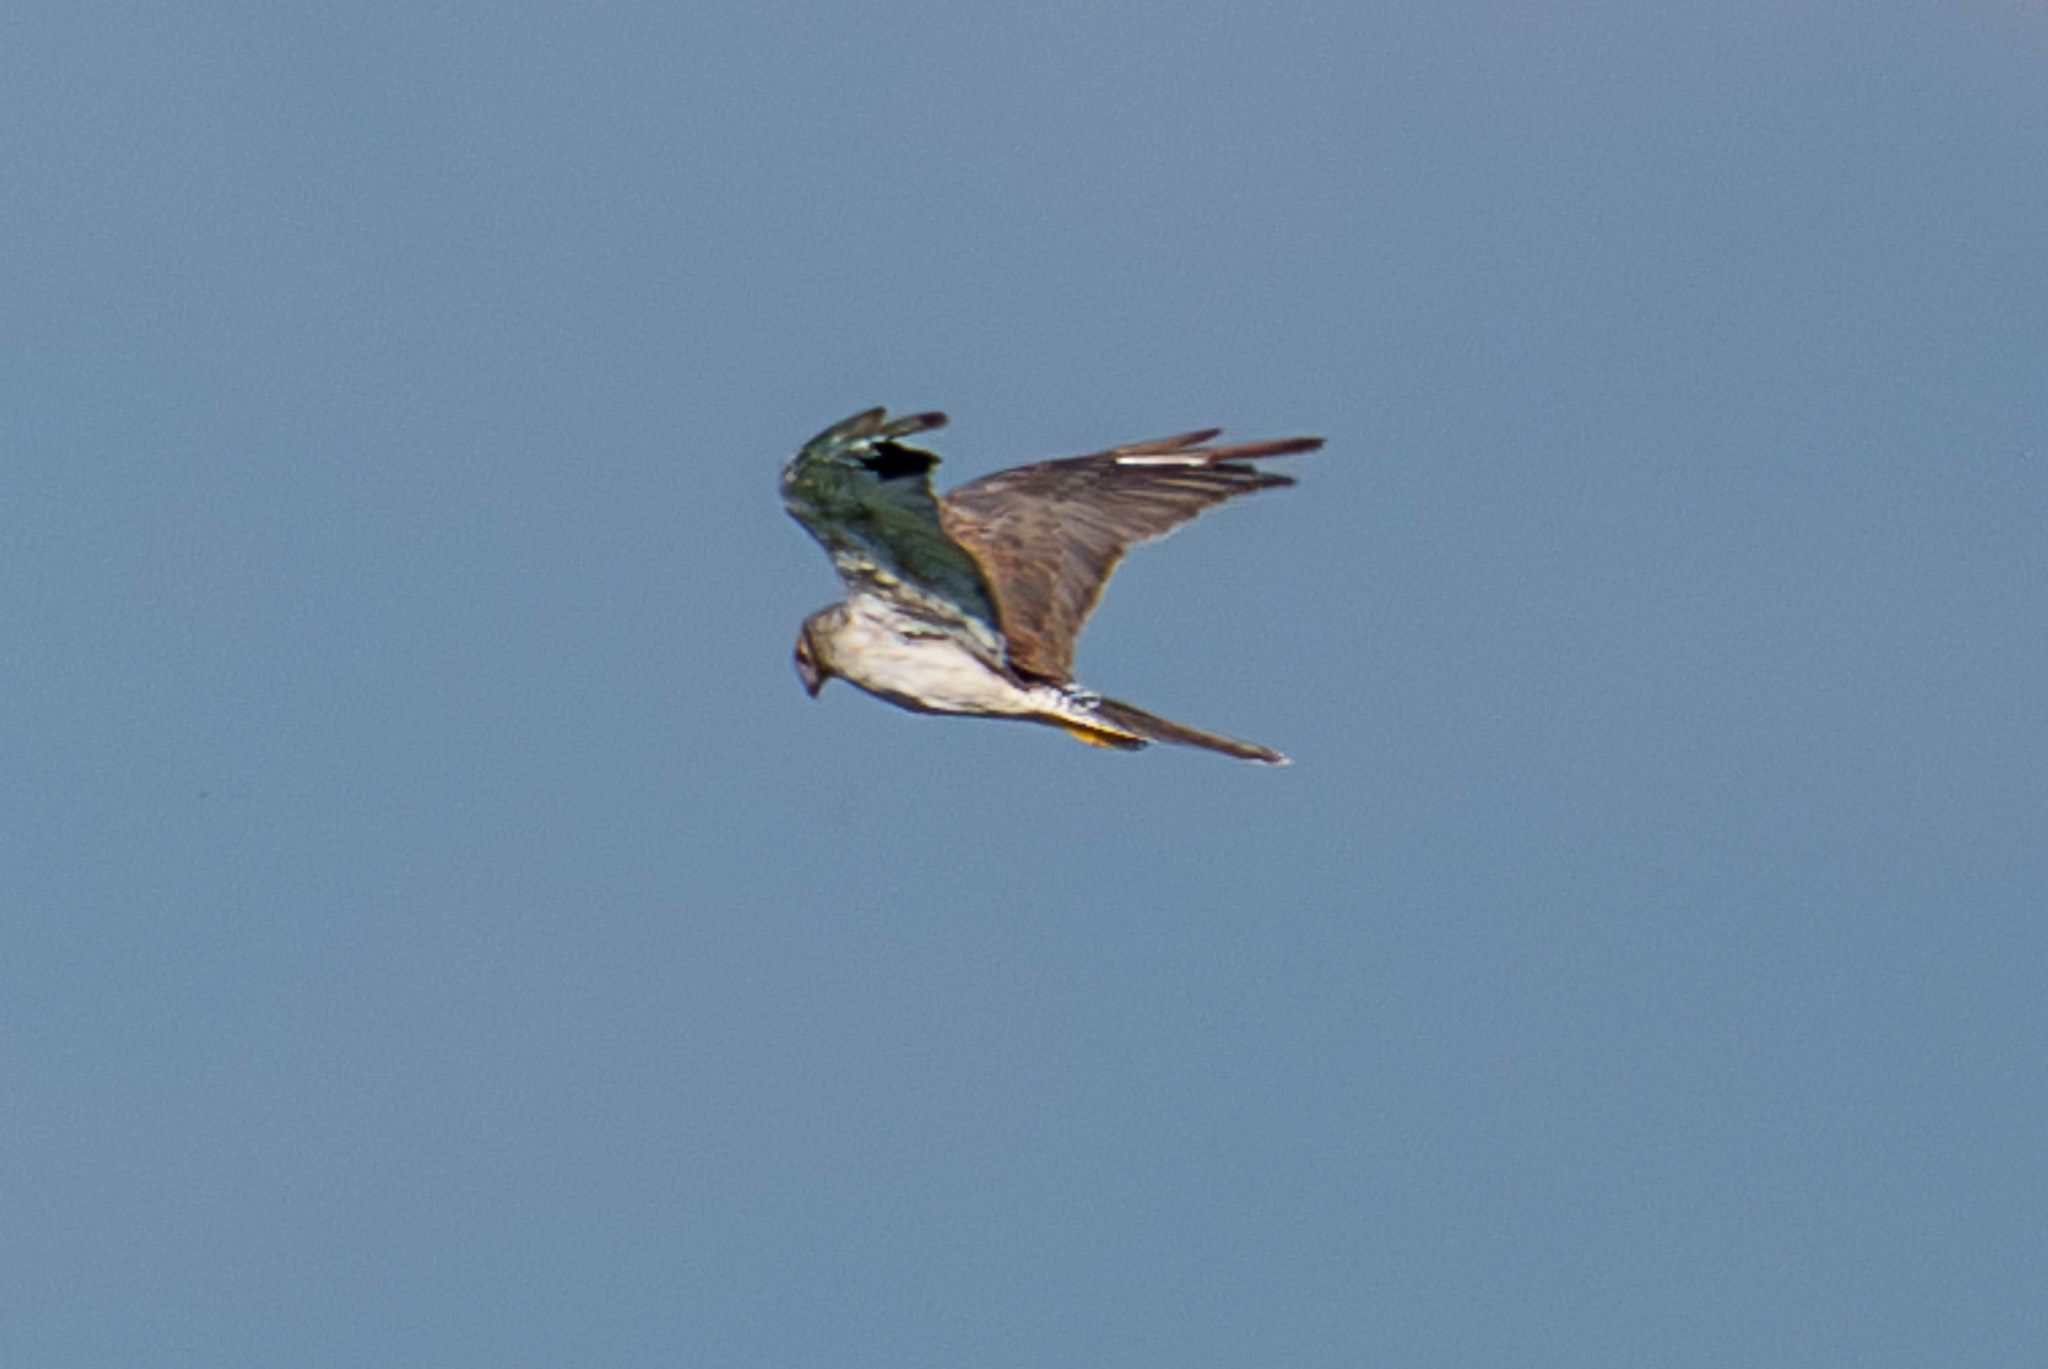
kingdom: Animalia
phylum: Chordata
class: Aves
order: Accipitriformes
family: Accipitridae
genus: Circus
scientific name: Circus macrourus
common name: Pallid harrier
